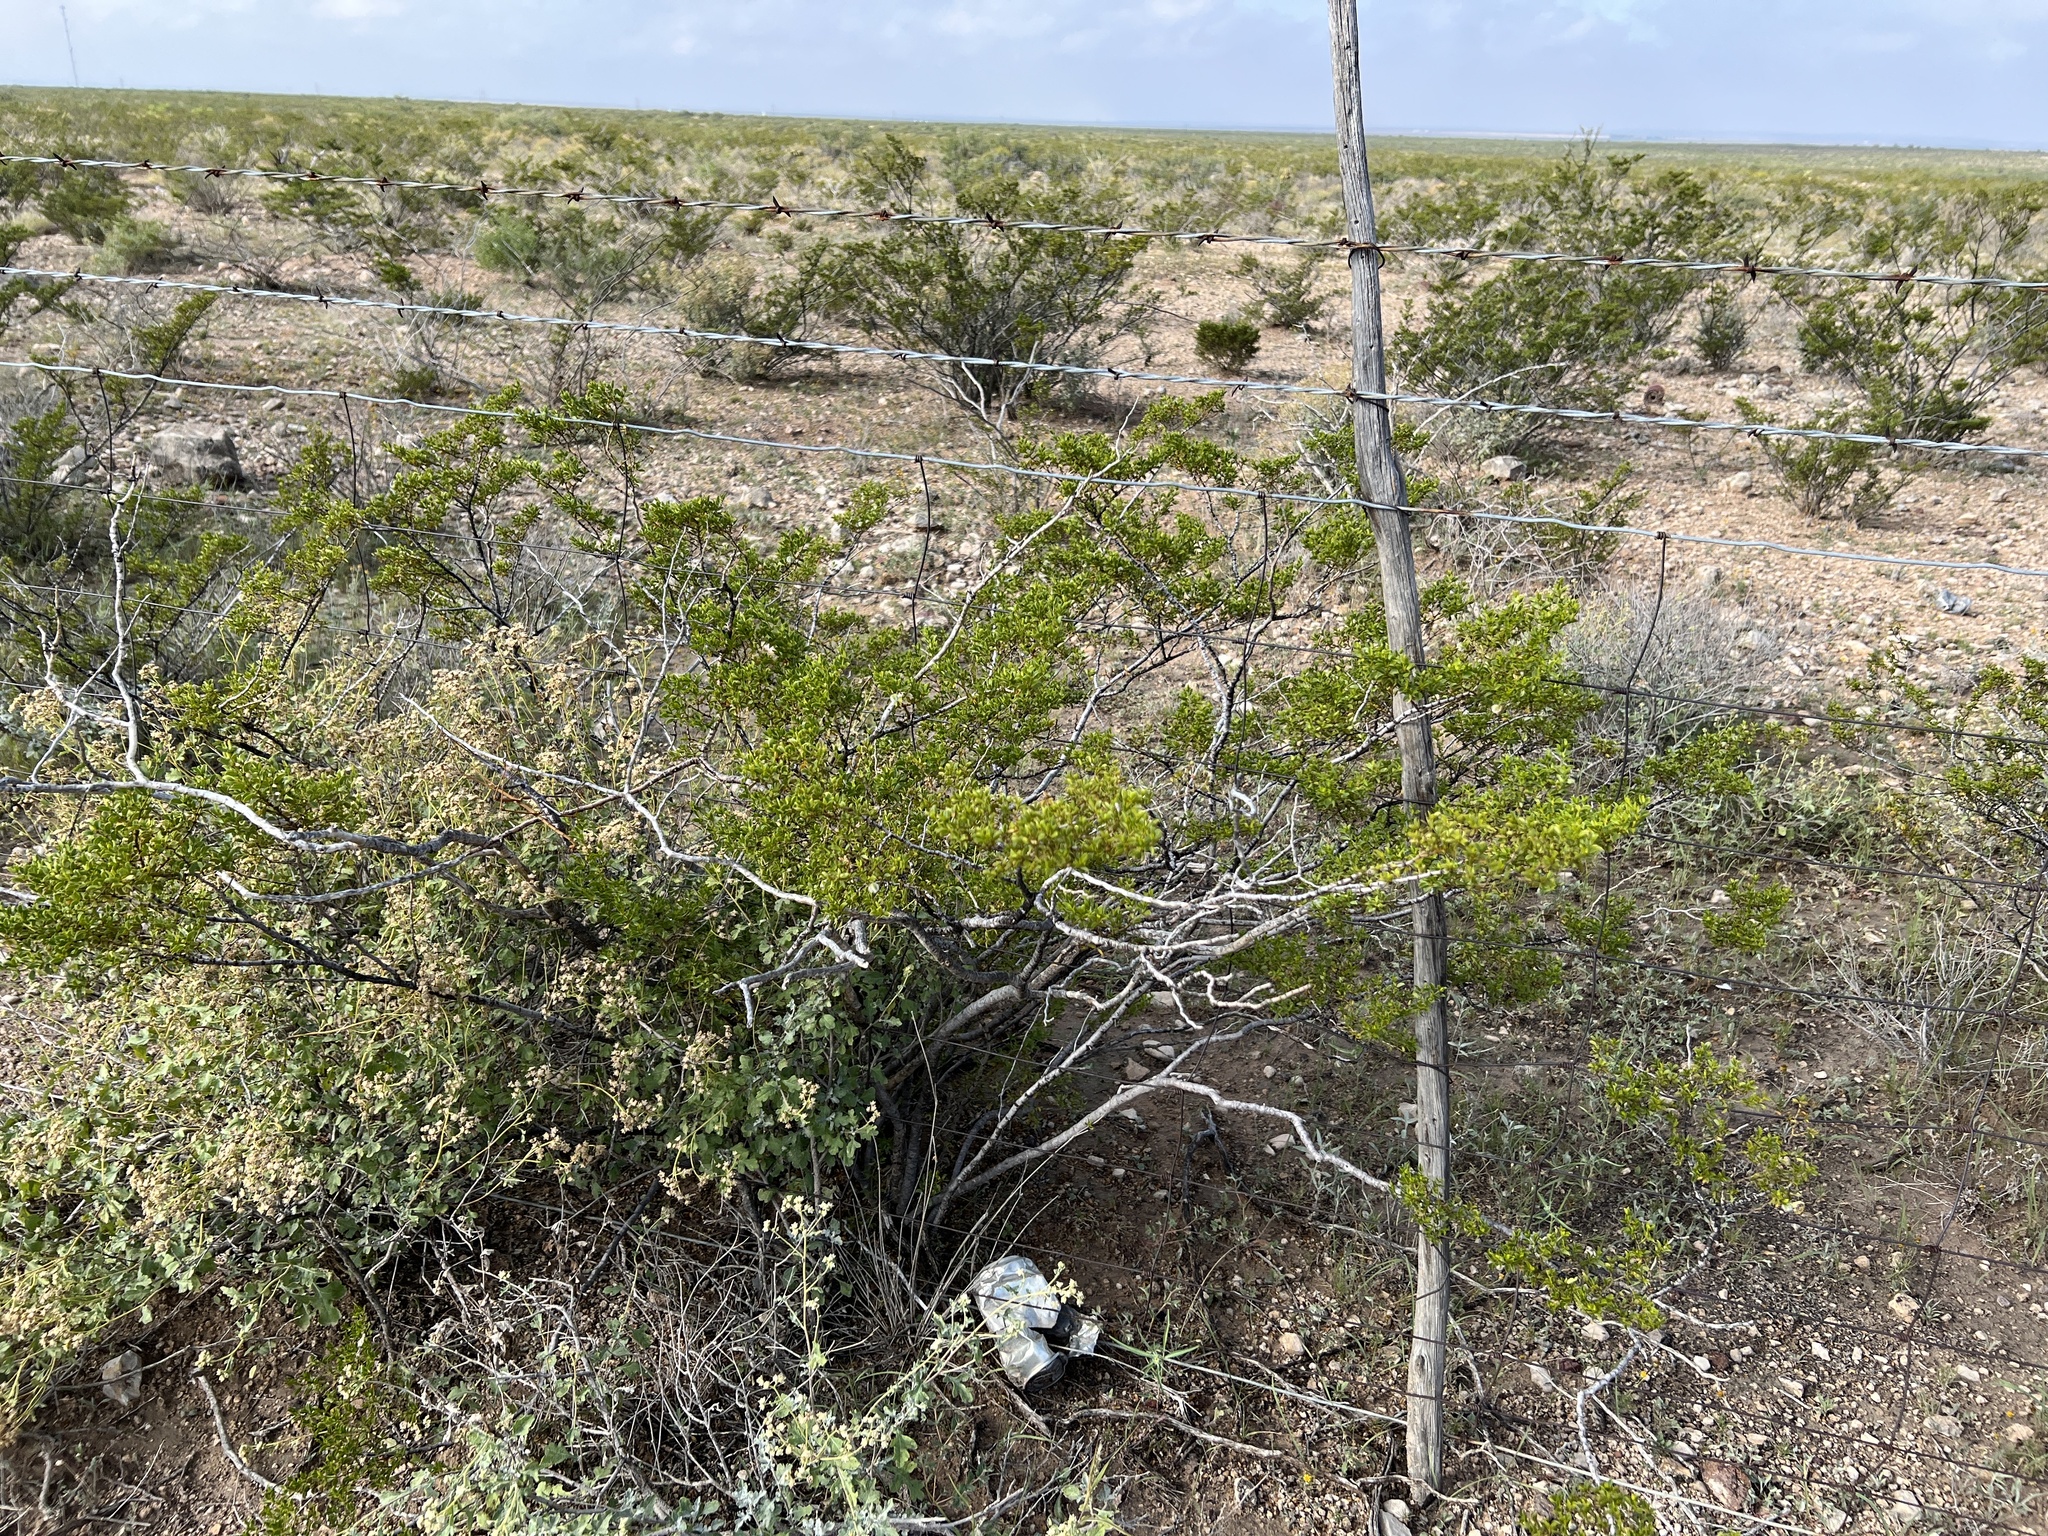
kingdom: Plantae
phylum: Tracheophyta
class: Magnoliopsida
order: Zygophyllales
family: Zygophyllaceae
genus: Larrea
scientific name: Larrea tridentata
